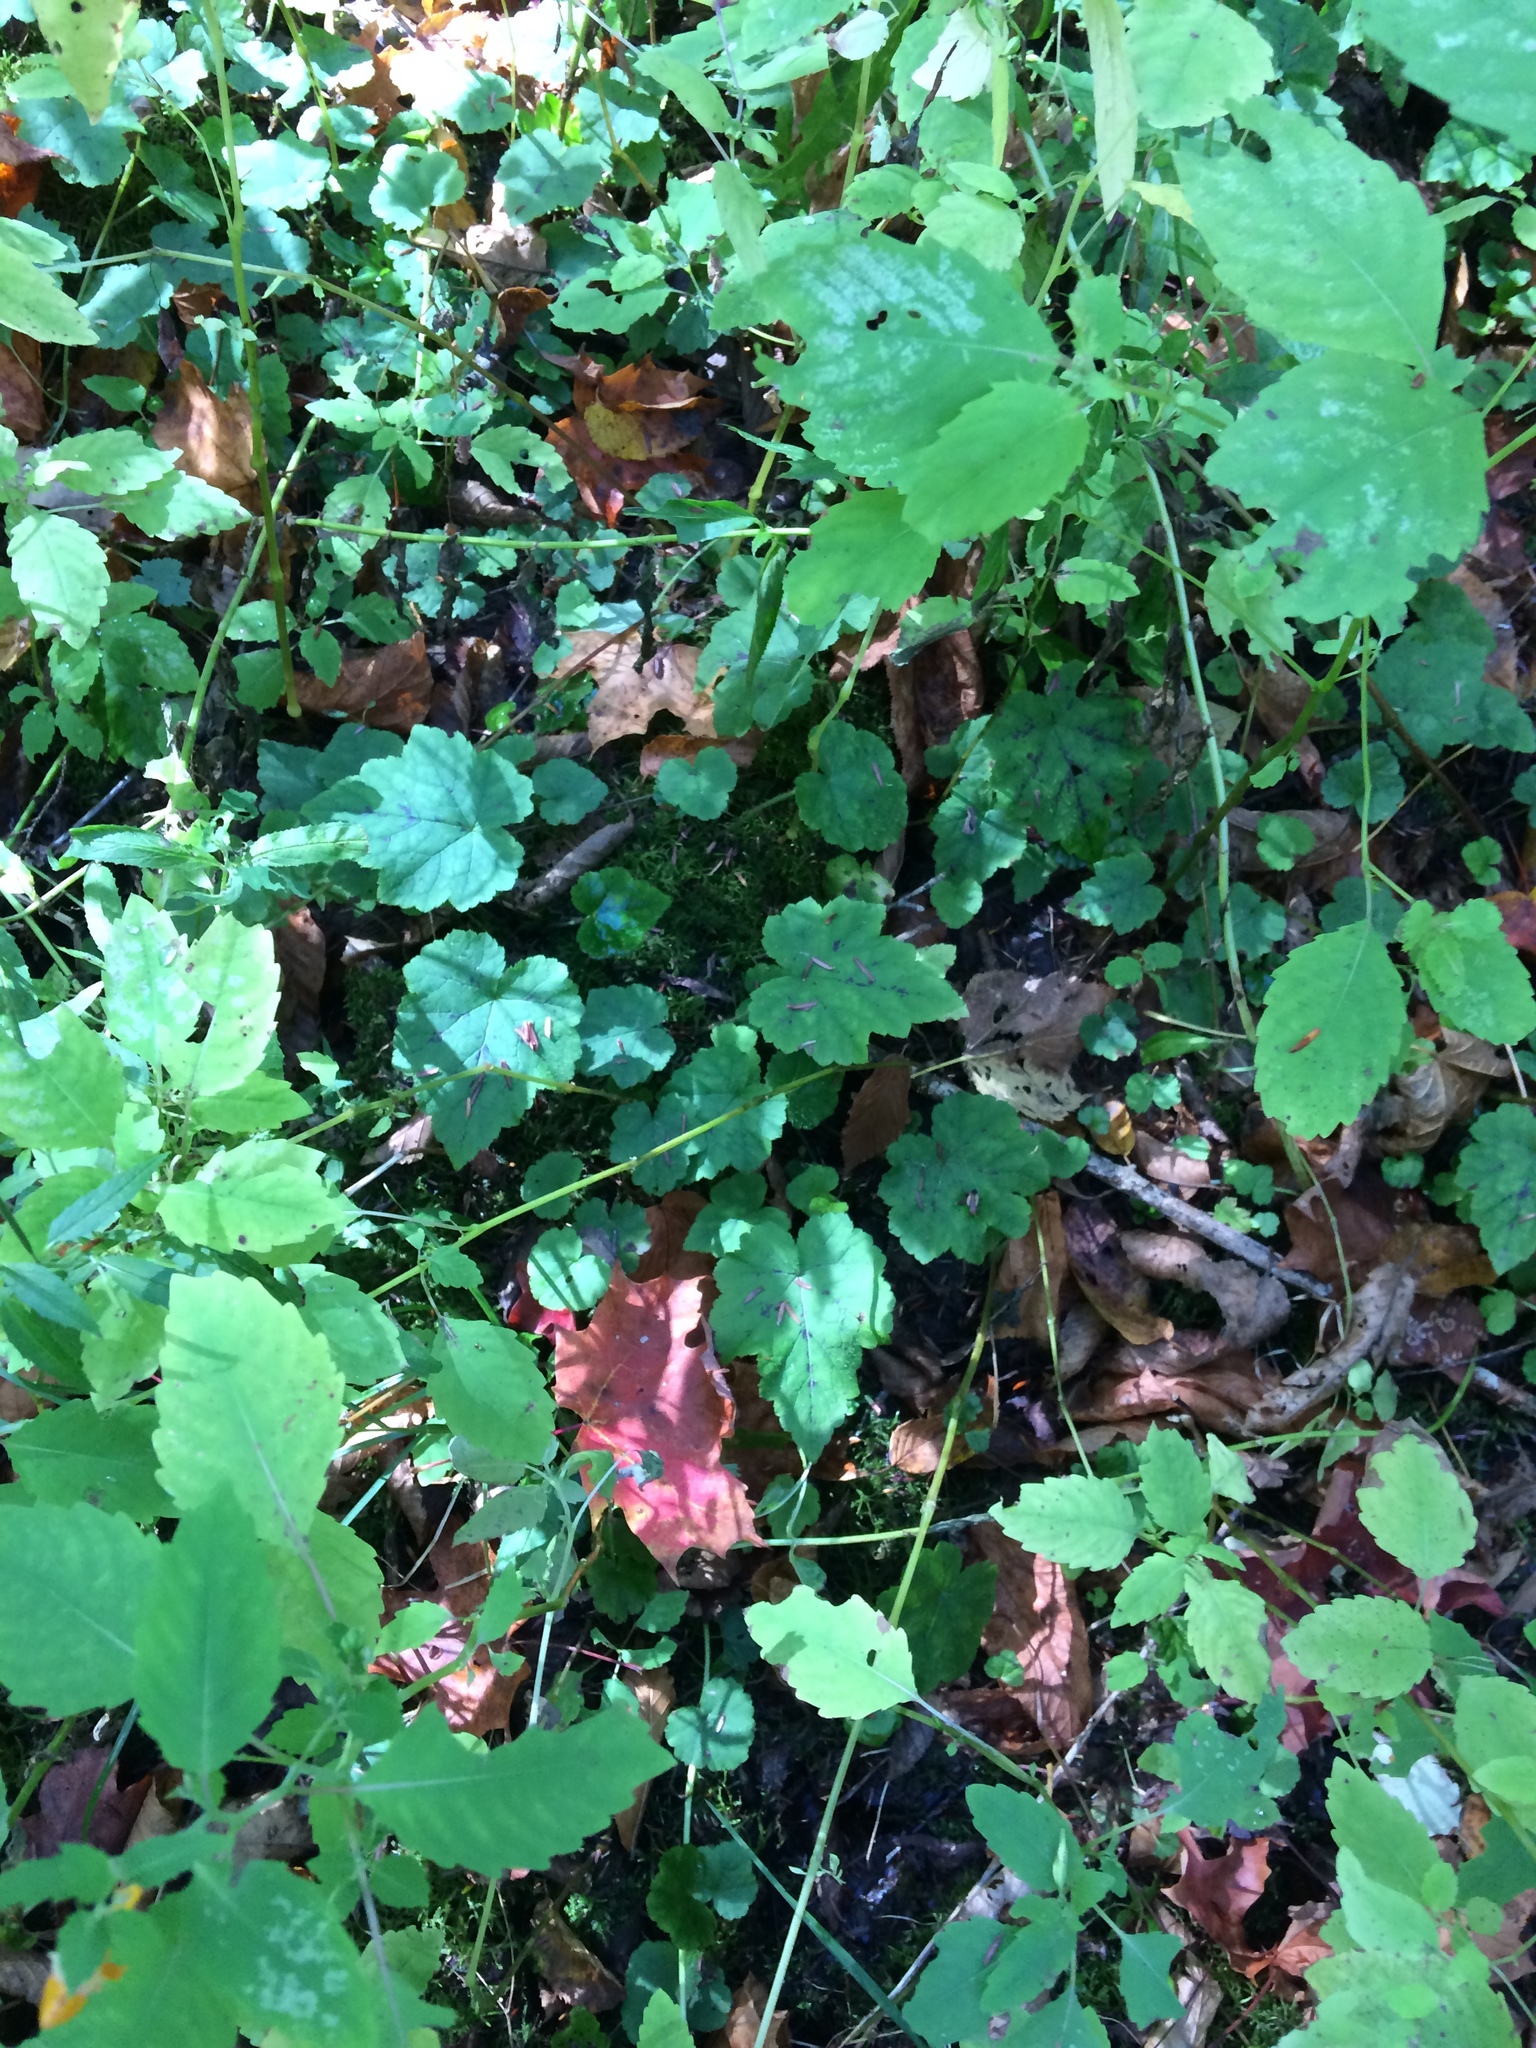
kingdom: Plantae
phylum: Tracheophyta
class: Magnoliopsida
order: Saxifragales
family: Saxifragaceae
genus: Tiarella
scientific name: Tiarella stolonifera
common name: Stoloniferous foamflower
